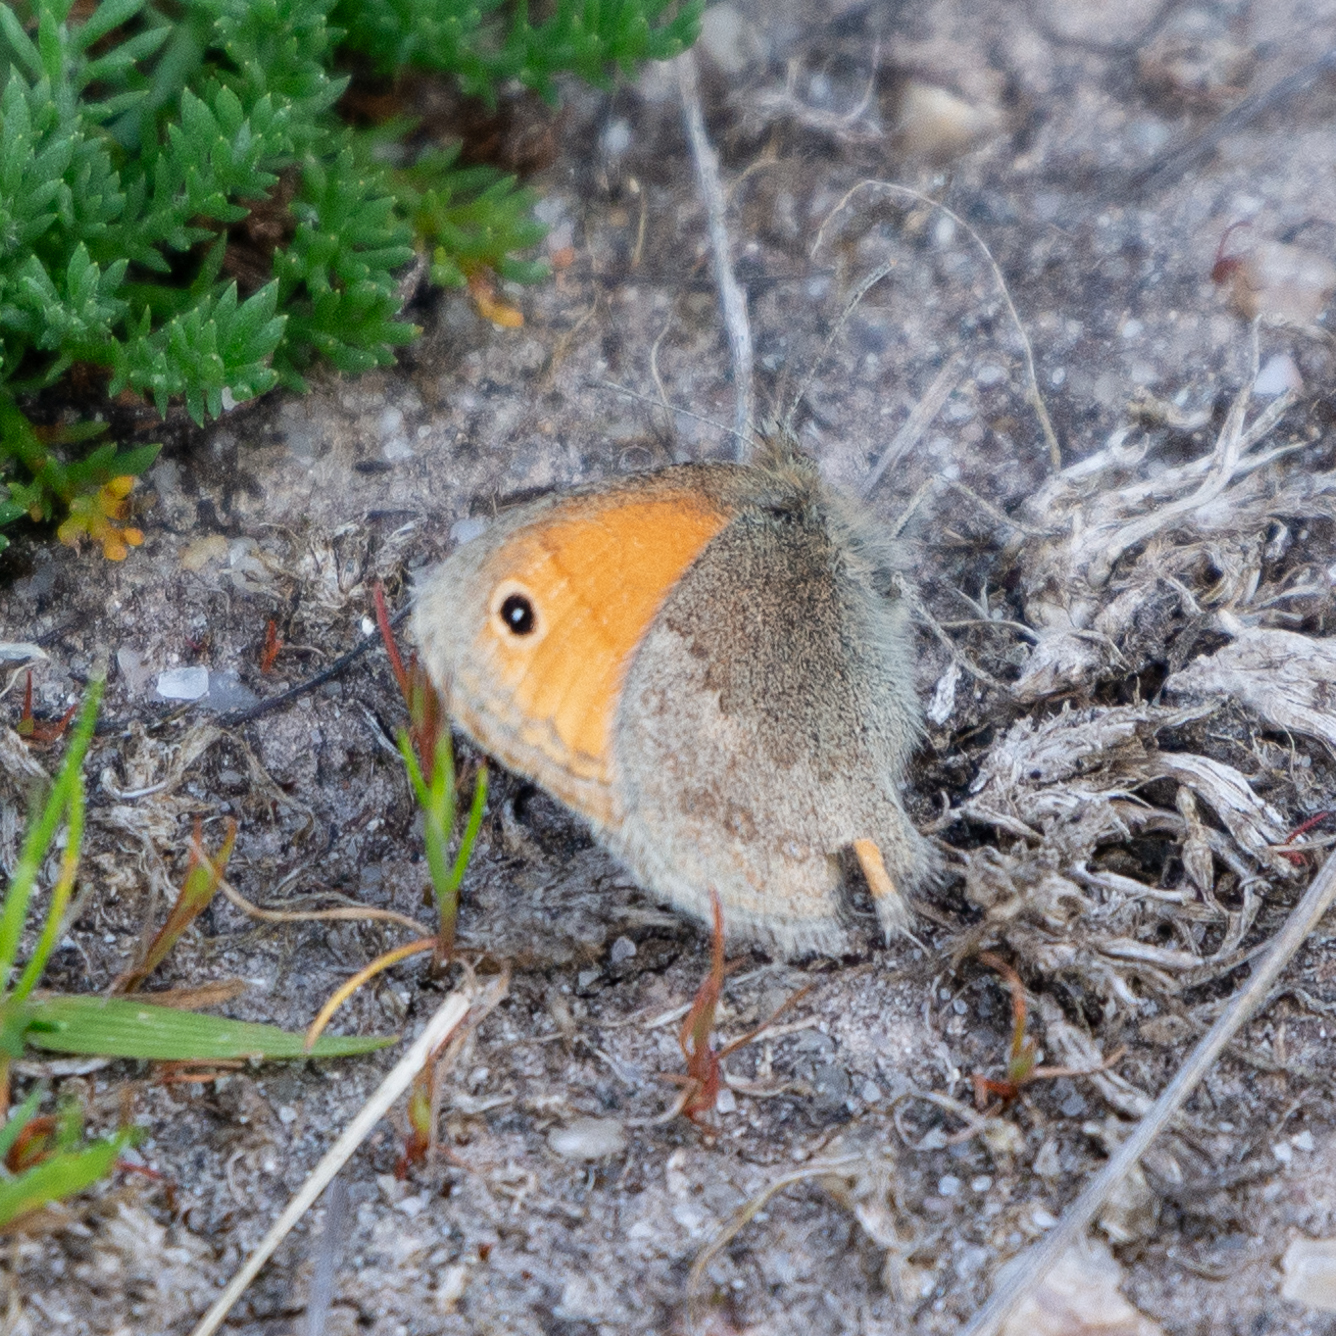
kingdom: Animalia
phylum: Arthropoda
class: Insecta
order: Lepidoptera
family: Nymphalidae
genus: Coenonympha
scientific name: Coenonympha pamphilus
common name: Small heath
